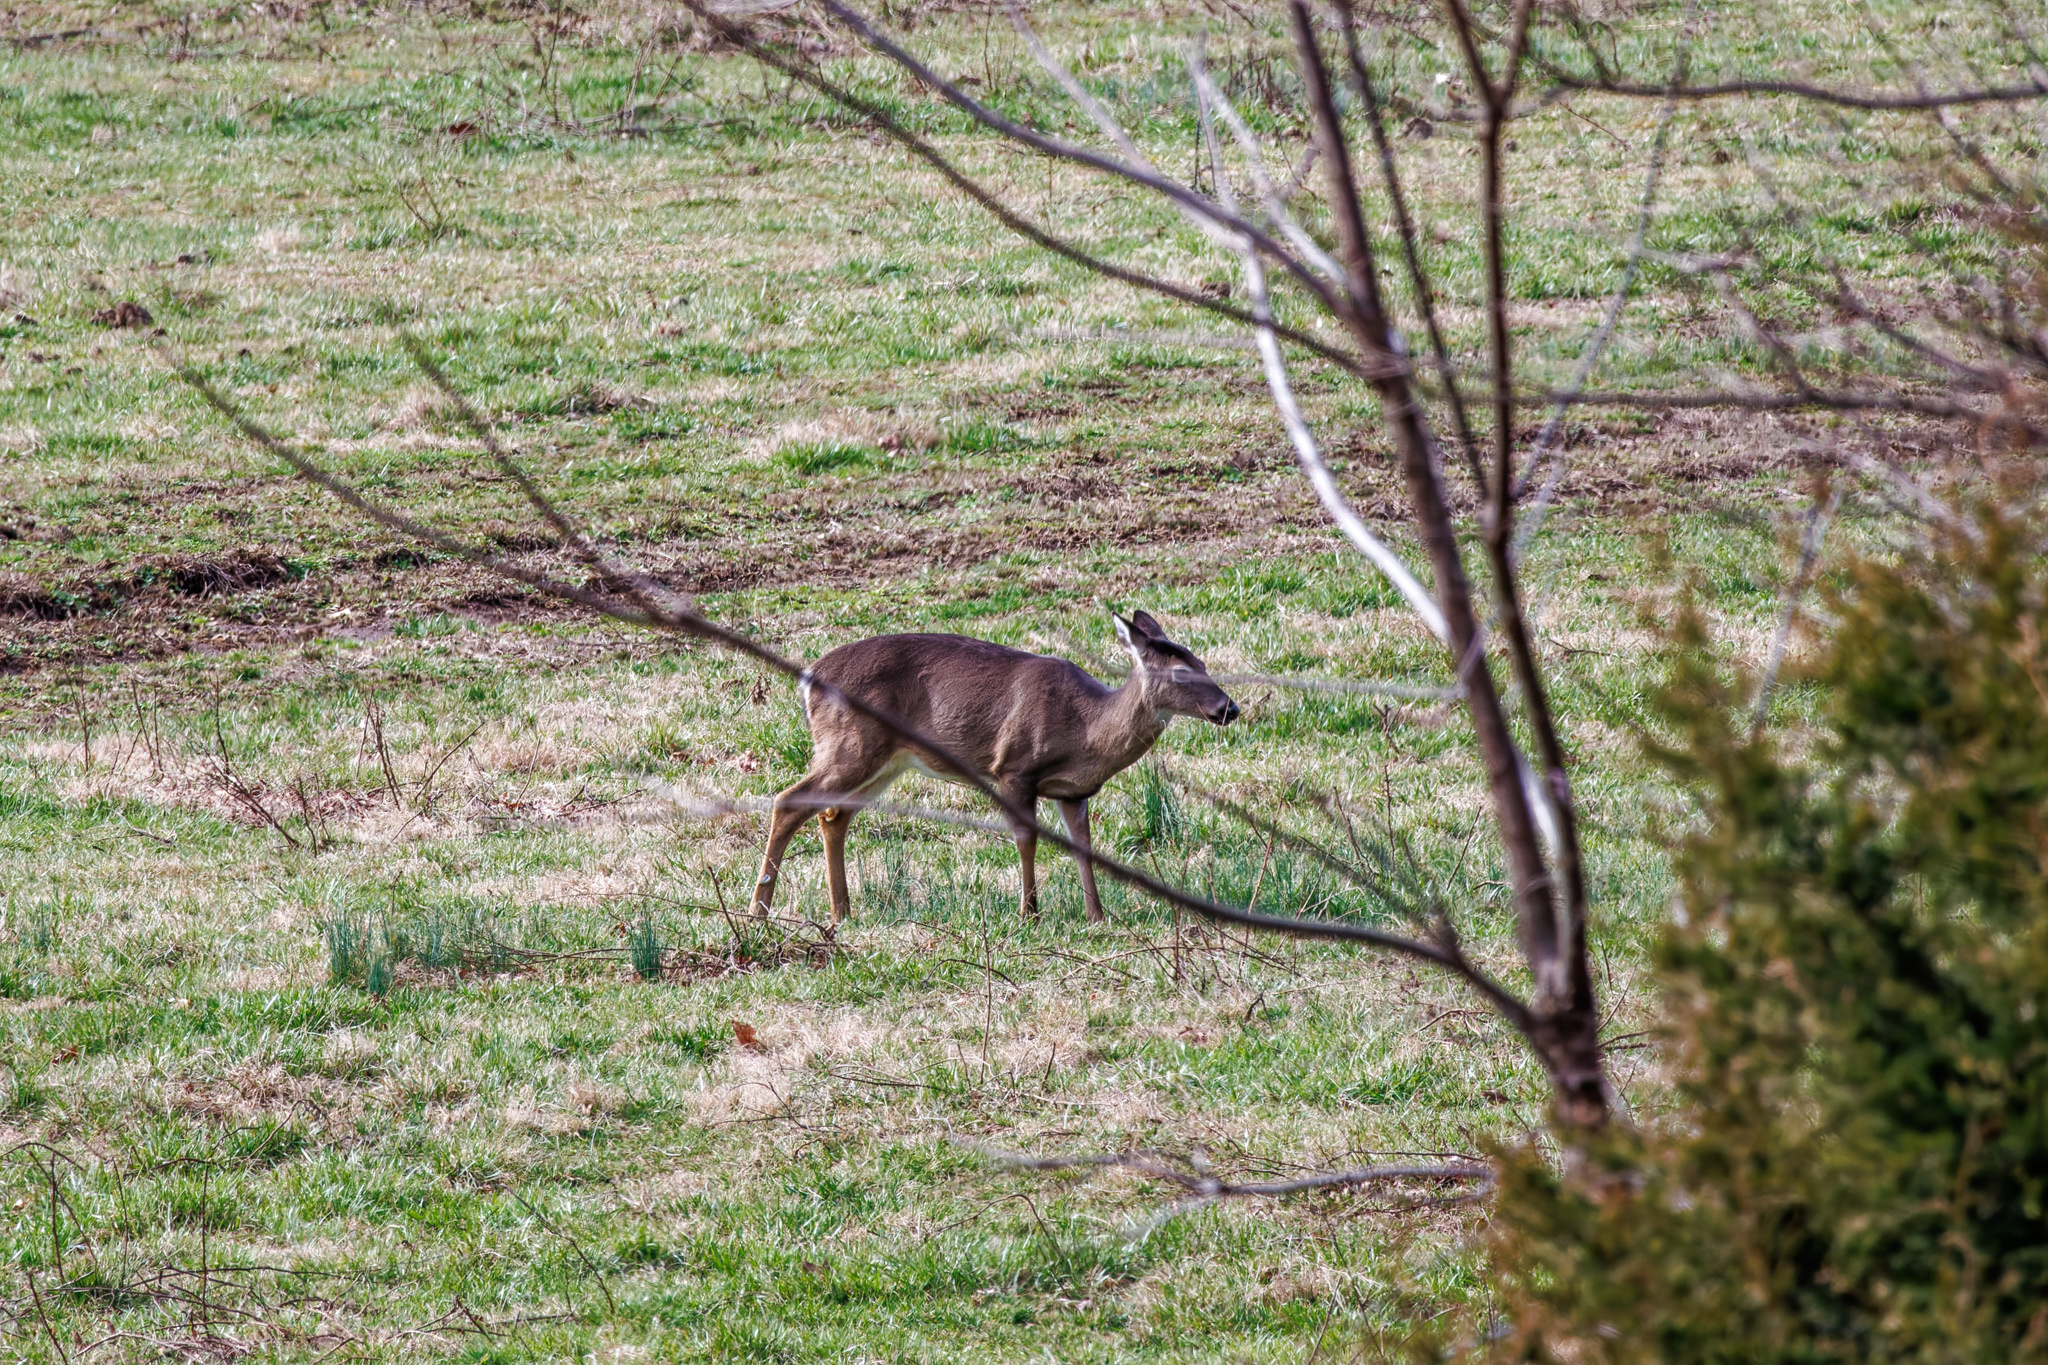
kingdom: Animalia
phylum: Chordata
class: Mammalia
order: Artiodactyla
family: Cervidae
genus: Odocoileus
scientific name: Odocoileus virginianus
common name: White-tailed deer
